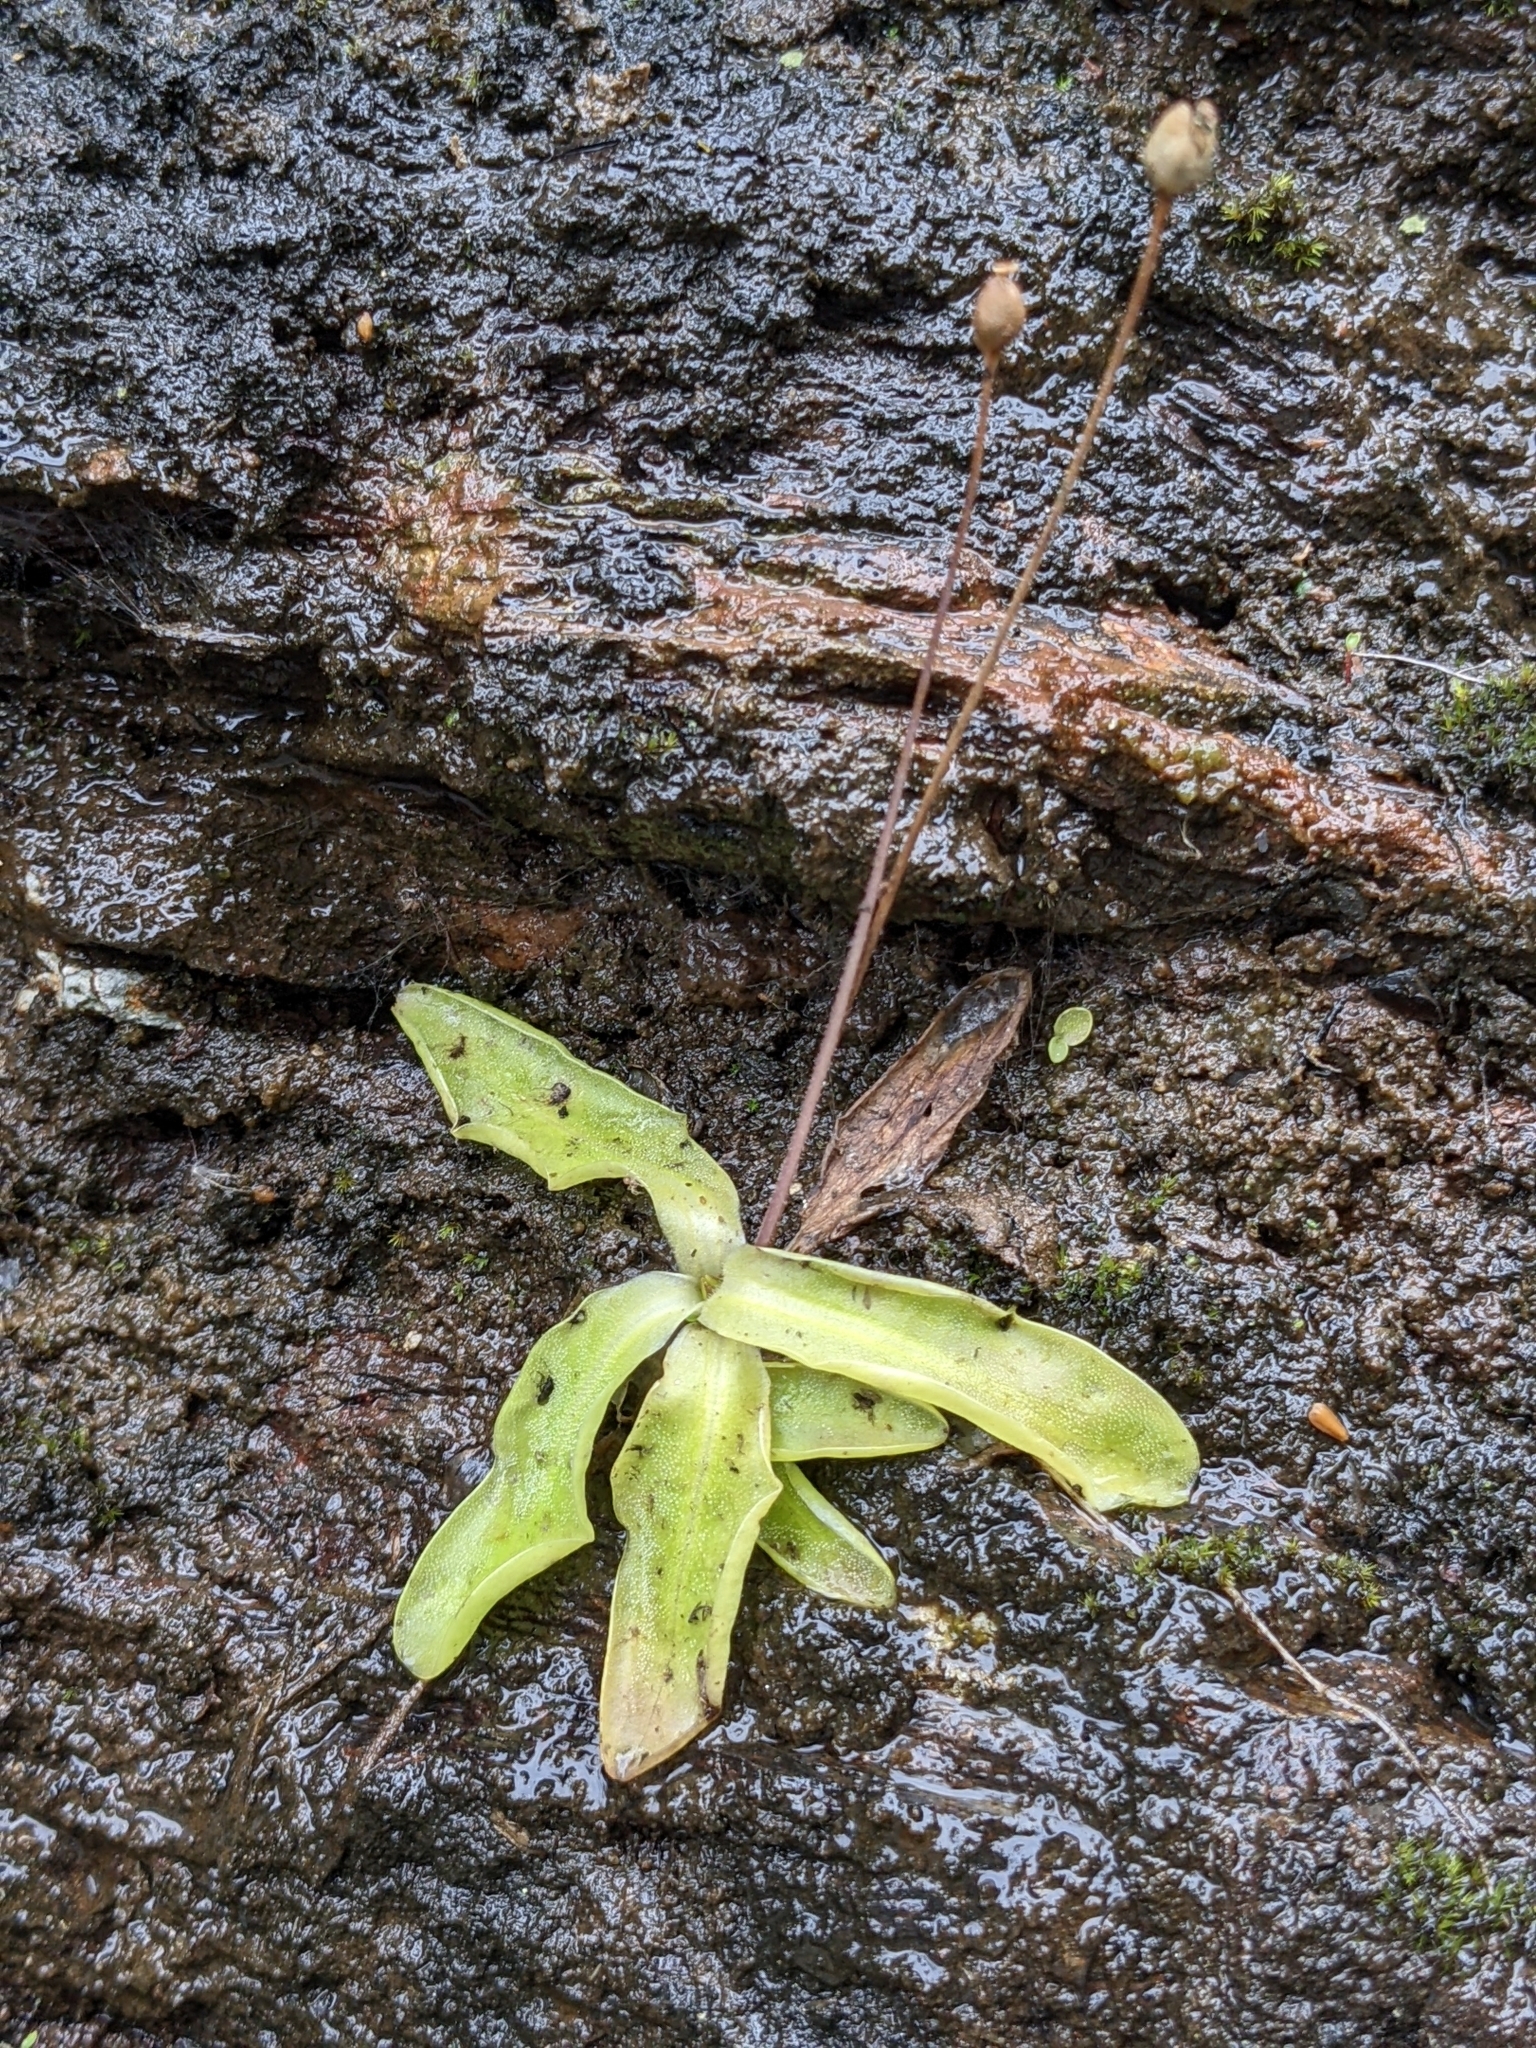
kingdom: Plantae
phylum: Tracheophyta
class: Magnoliopsida
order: Lamiales
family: Lentibulariaceae
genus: Pinguicula
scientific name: Pinguicula vulgaris
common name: Common butterwort
